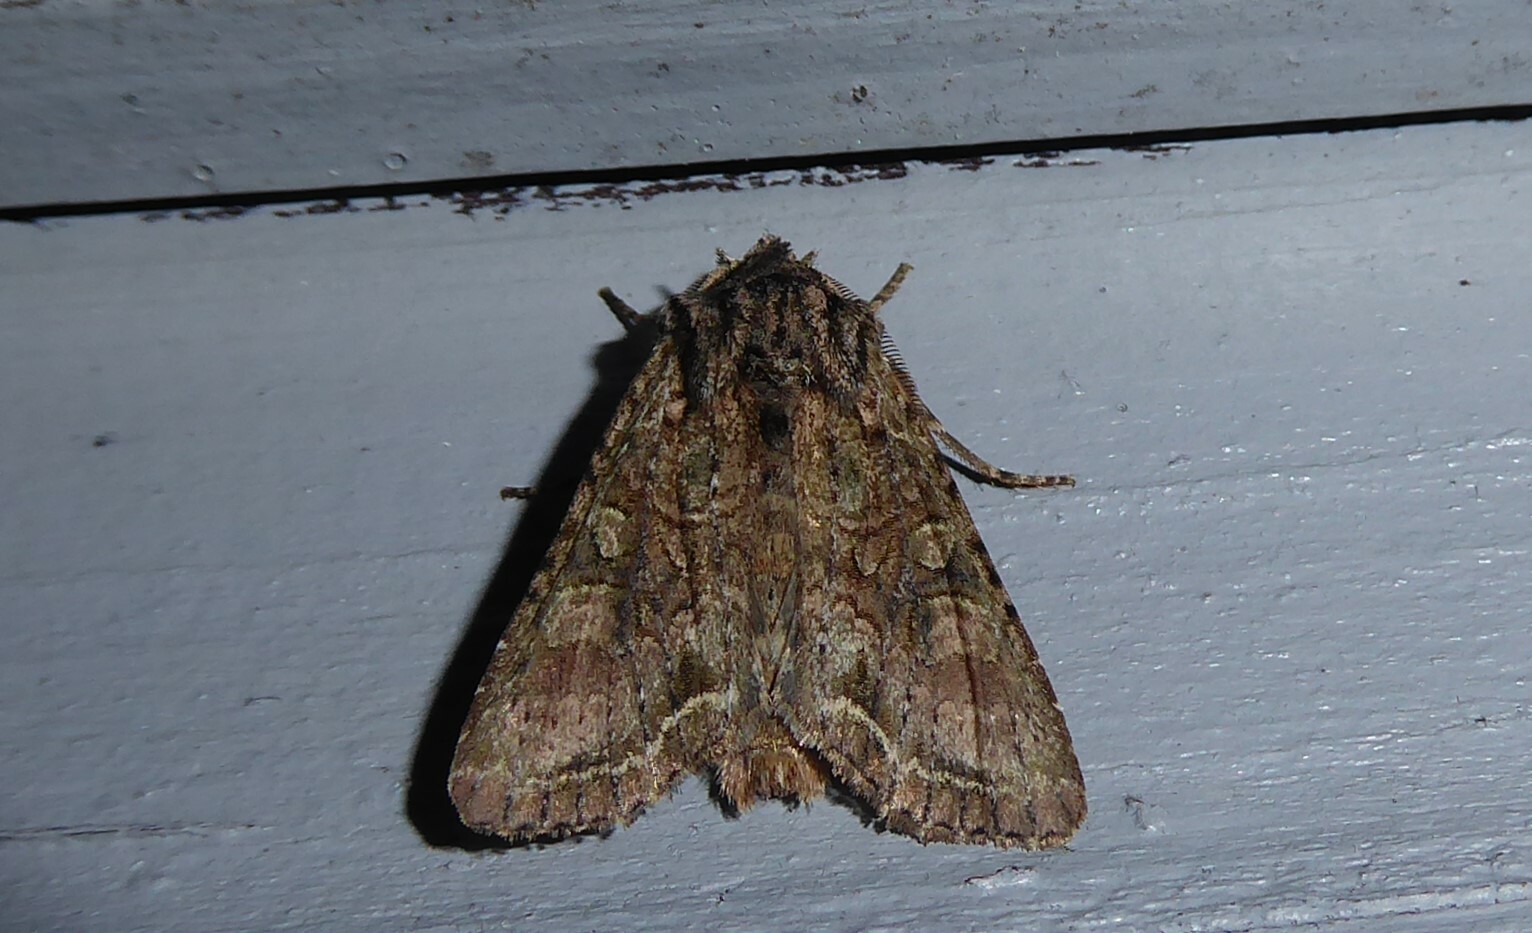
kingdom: Animalia
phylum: Arthropoda
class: Insecta
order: Lepidoptera
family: Noctuidae
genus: Ichneutica
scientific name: Ichneutica mutans
